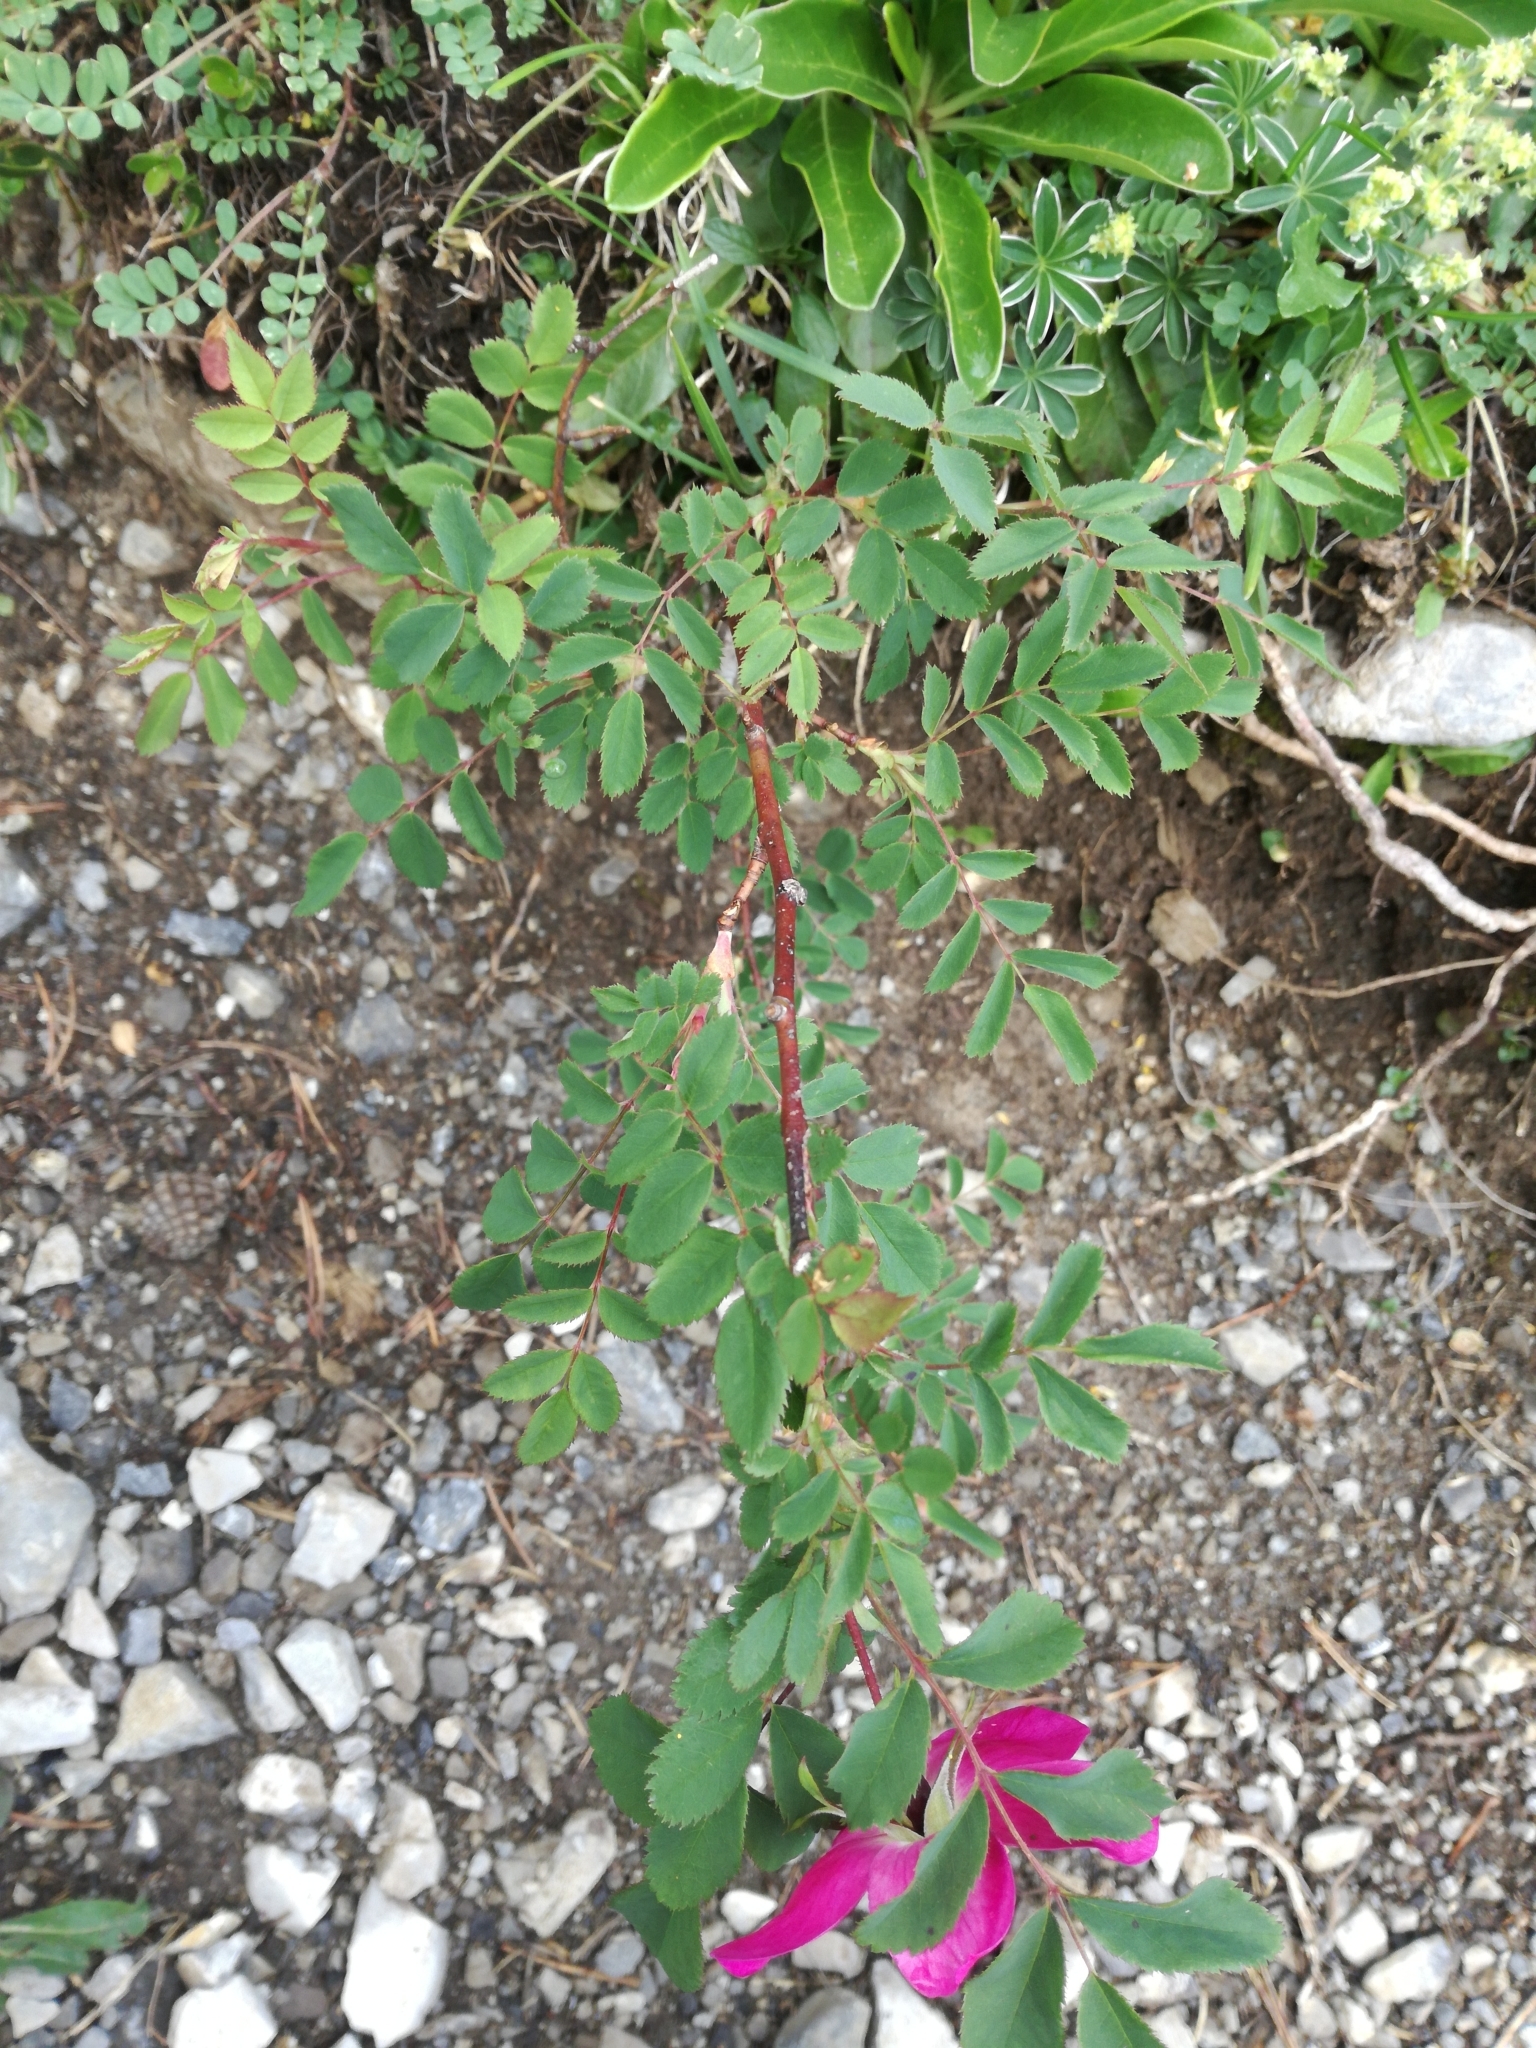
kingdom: Plantae
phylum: Tracheophyta
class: Magnoliopsida
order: Rosales
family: Rosaceae
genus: Rosa
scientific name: Rosa pendulina
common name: Alpine rose
